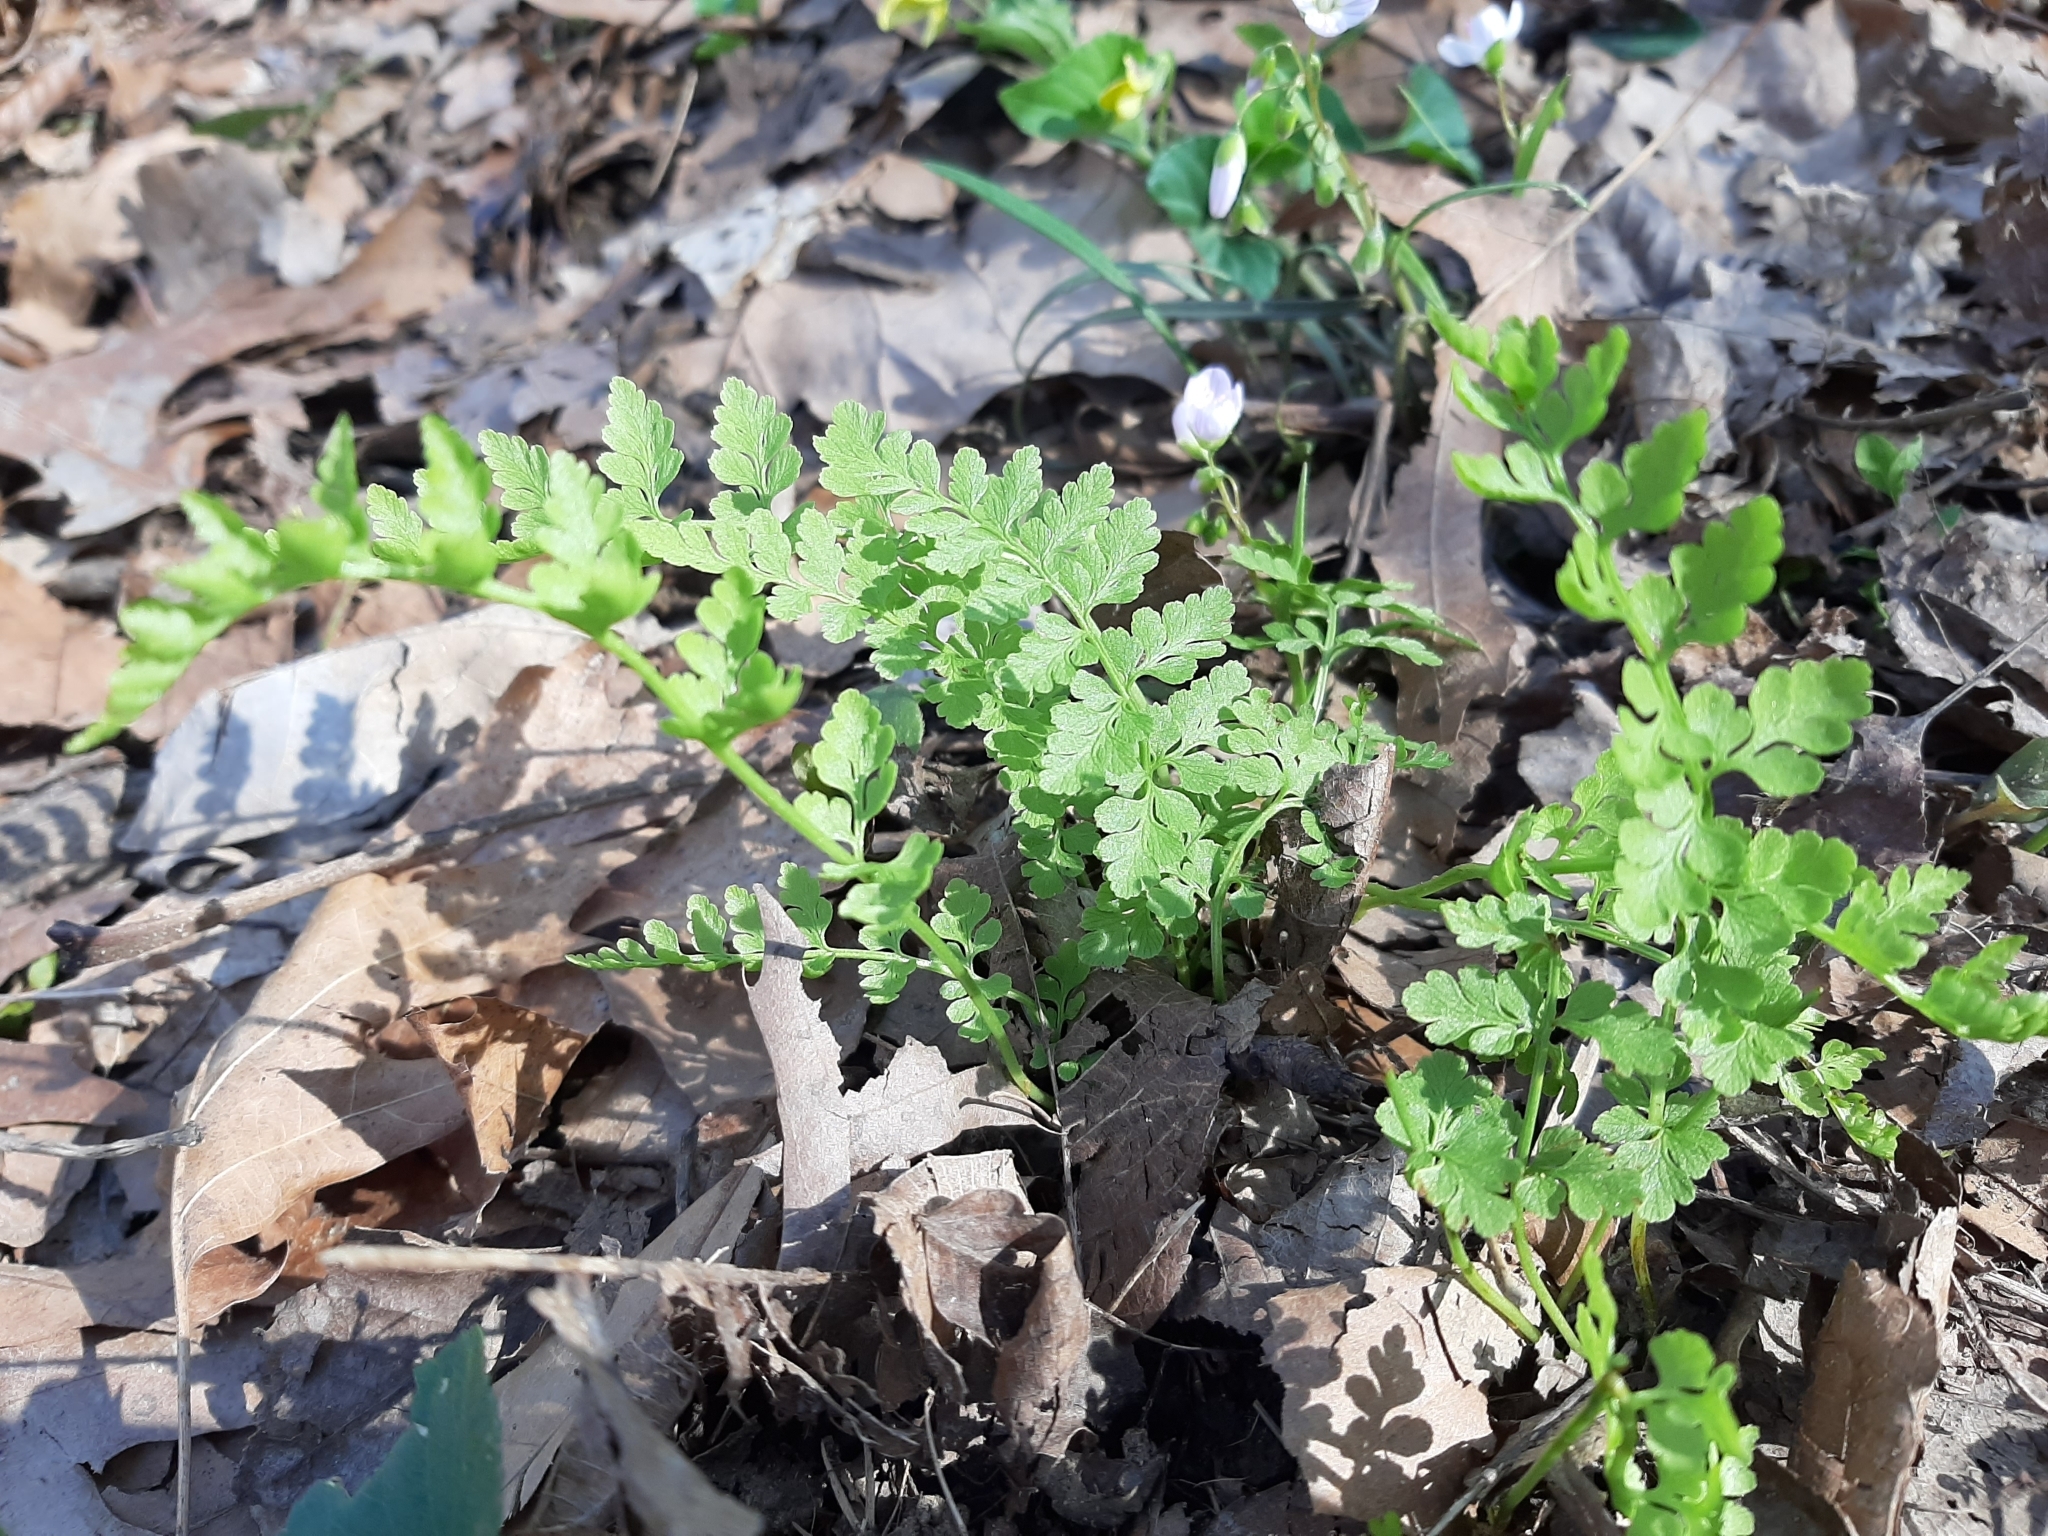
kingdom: Plantae
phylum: Tracheophyta
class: Polypodiopsida
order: Polypodiales
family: Cystopteridaceae
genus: Cystopteris
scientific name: Cystopteris protrusa
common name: Lowland brittle fern
